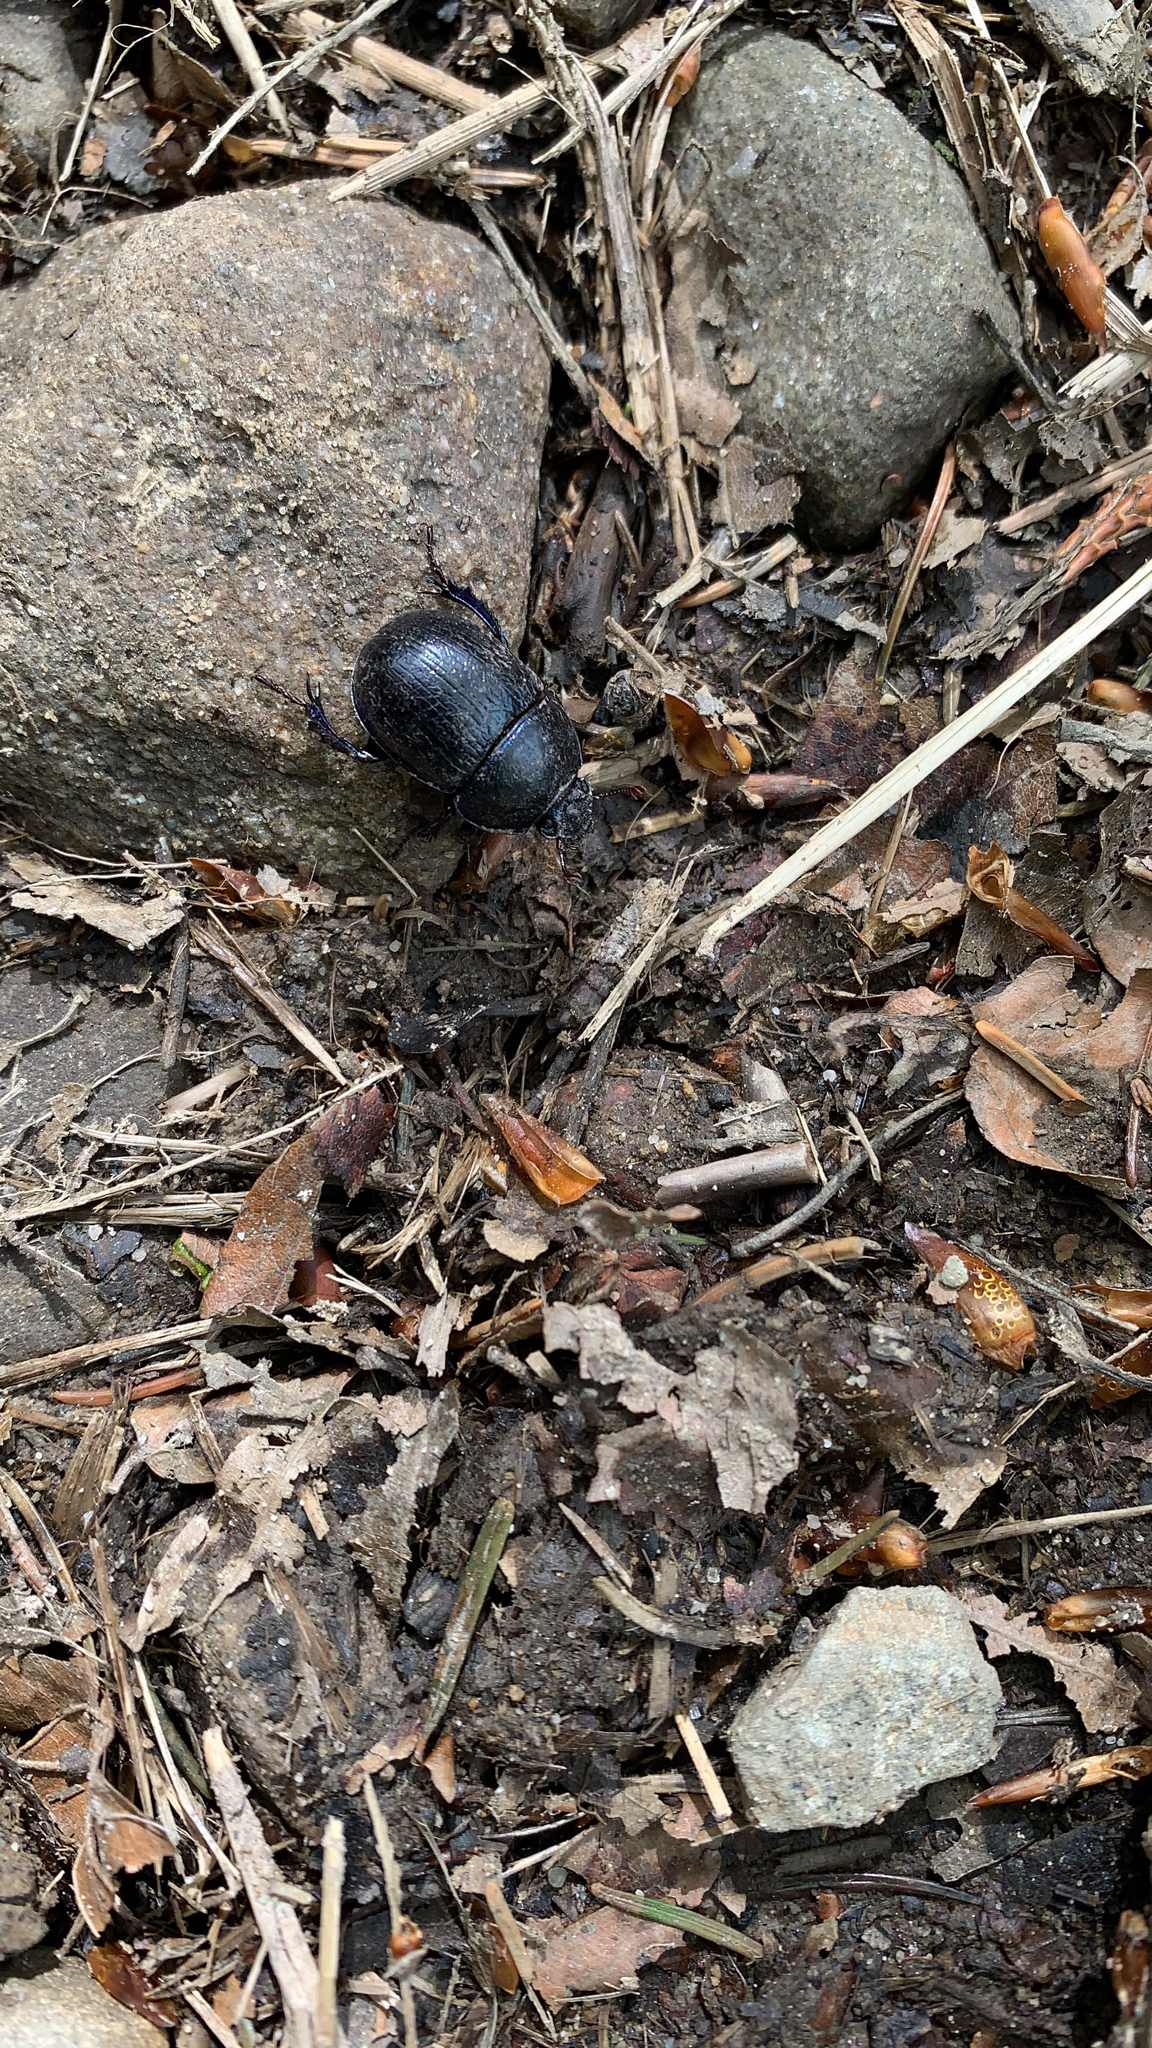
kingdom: Animalia
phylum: Arthropoda
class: Insecta
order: Coleoptera
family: Geotrupidae
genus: Anoplotrupes
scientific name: Anoplotrupes stercorosus
